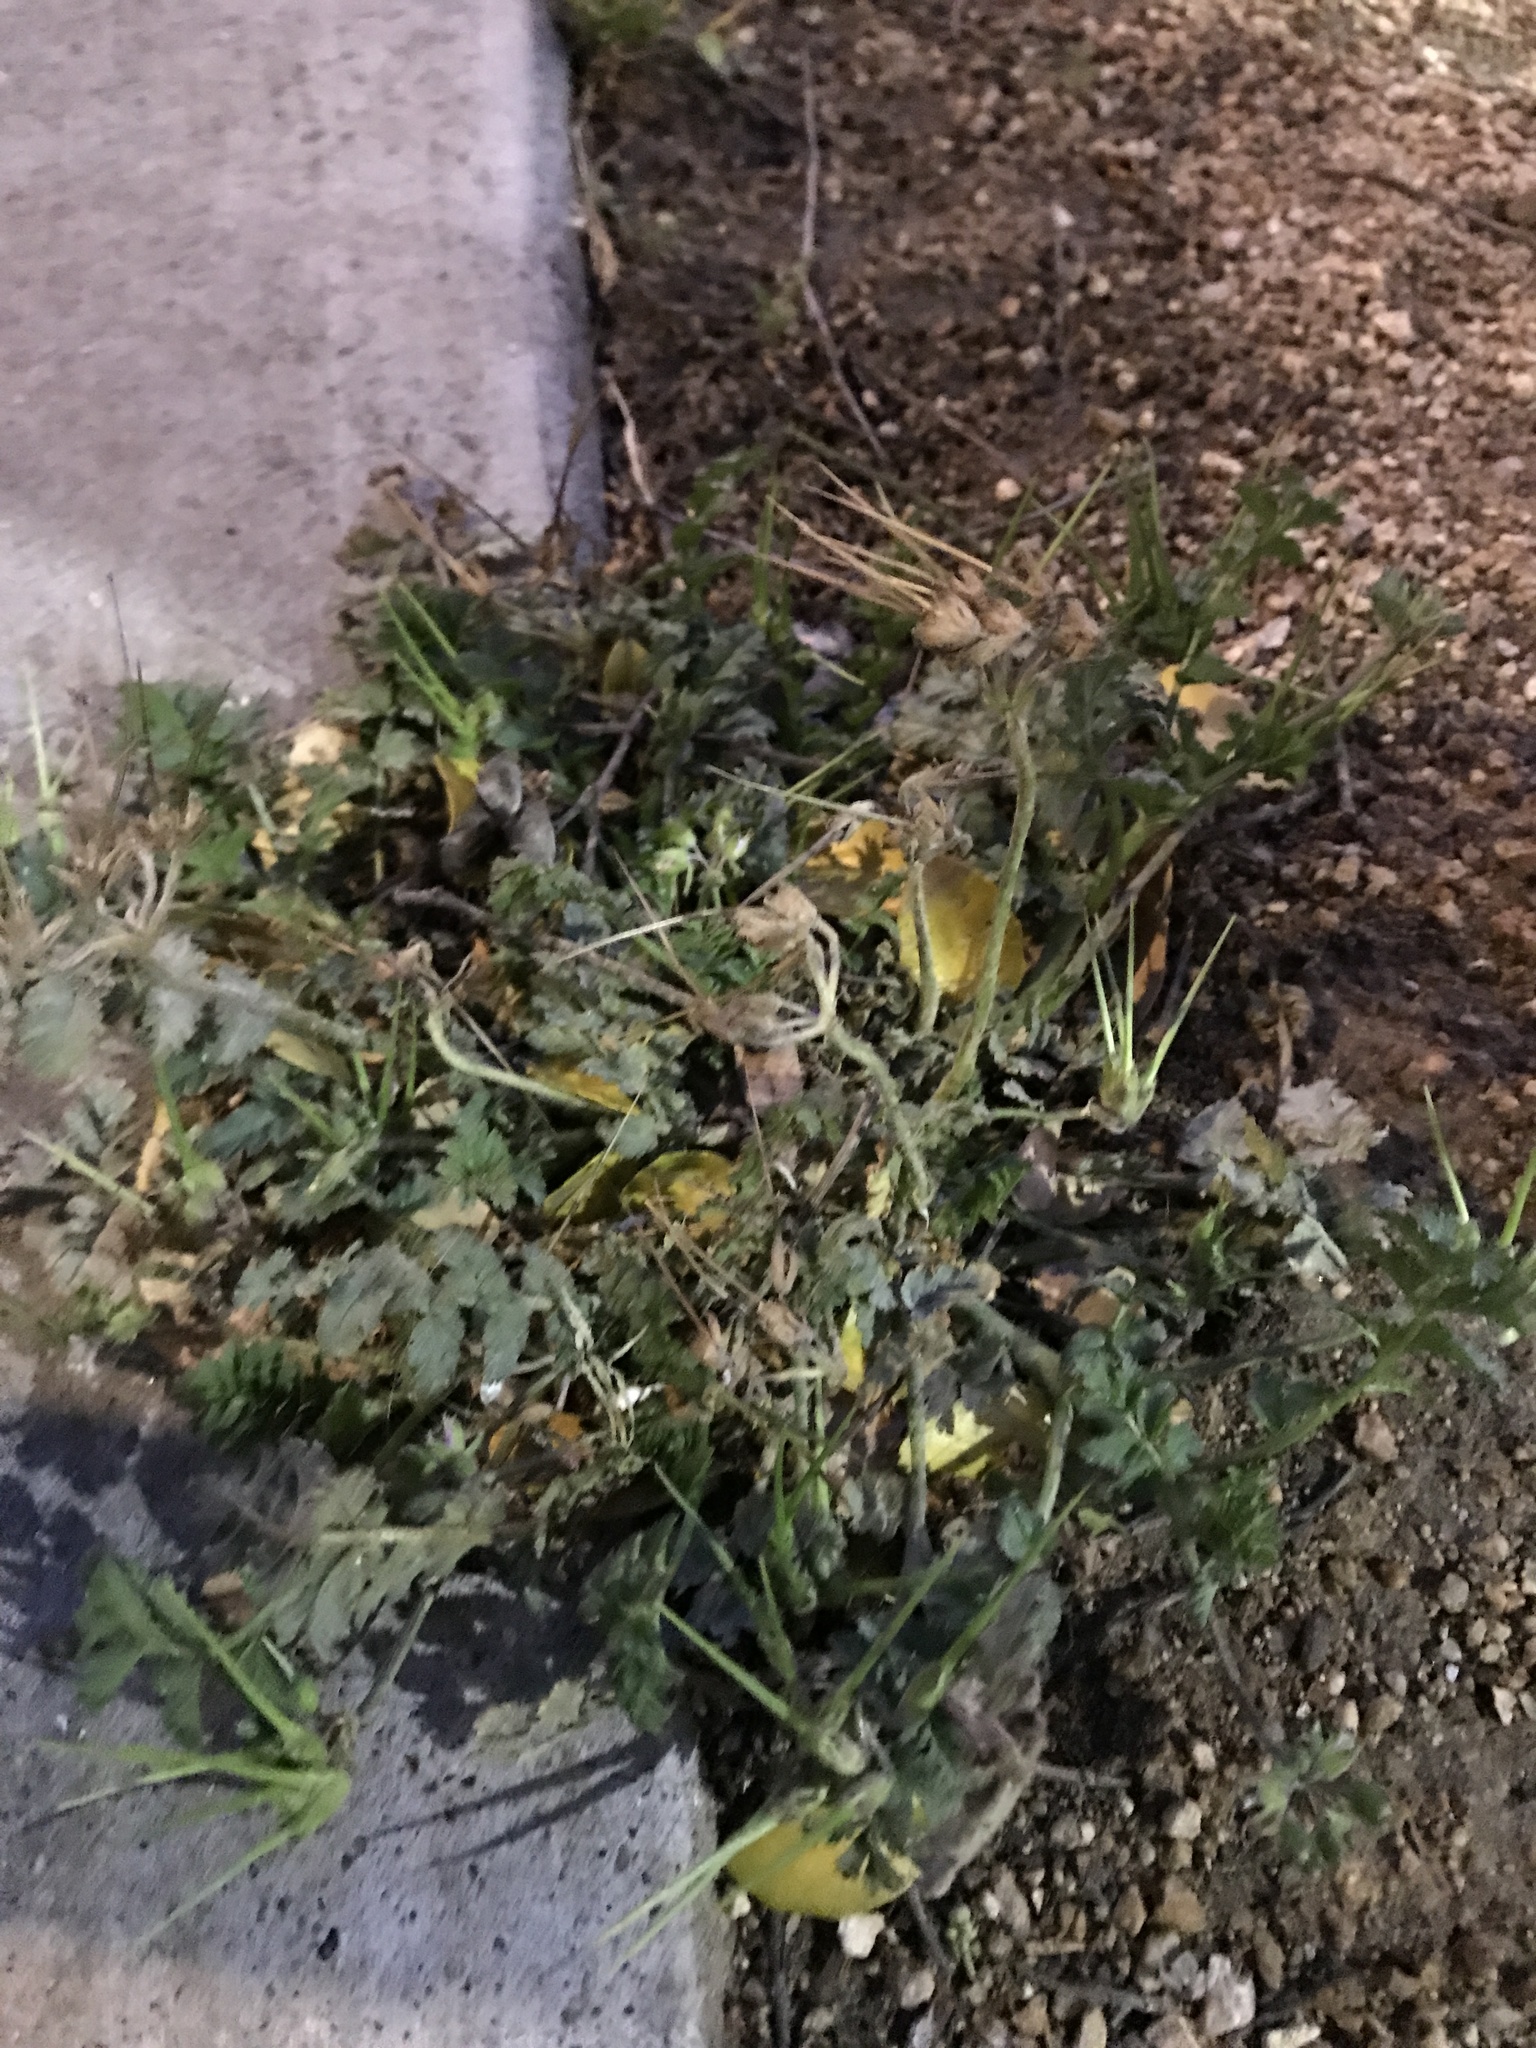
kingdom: Plantae
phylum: Tracheophyta
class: Magnoliopsida
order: Geraniales
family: Geraniaceae
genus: Erodium
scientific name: Erodium moschatum
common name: Musk stork's-bill
